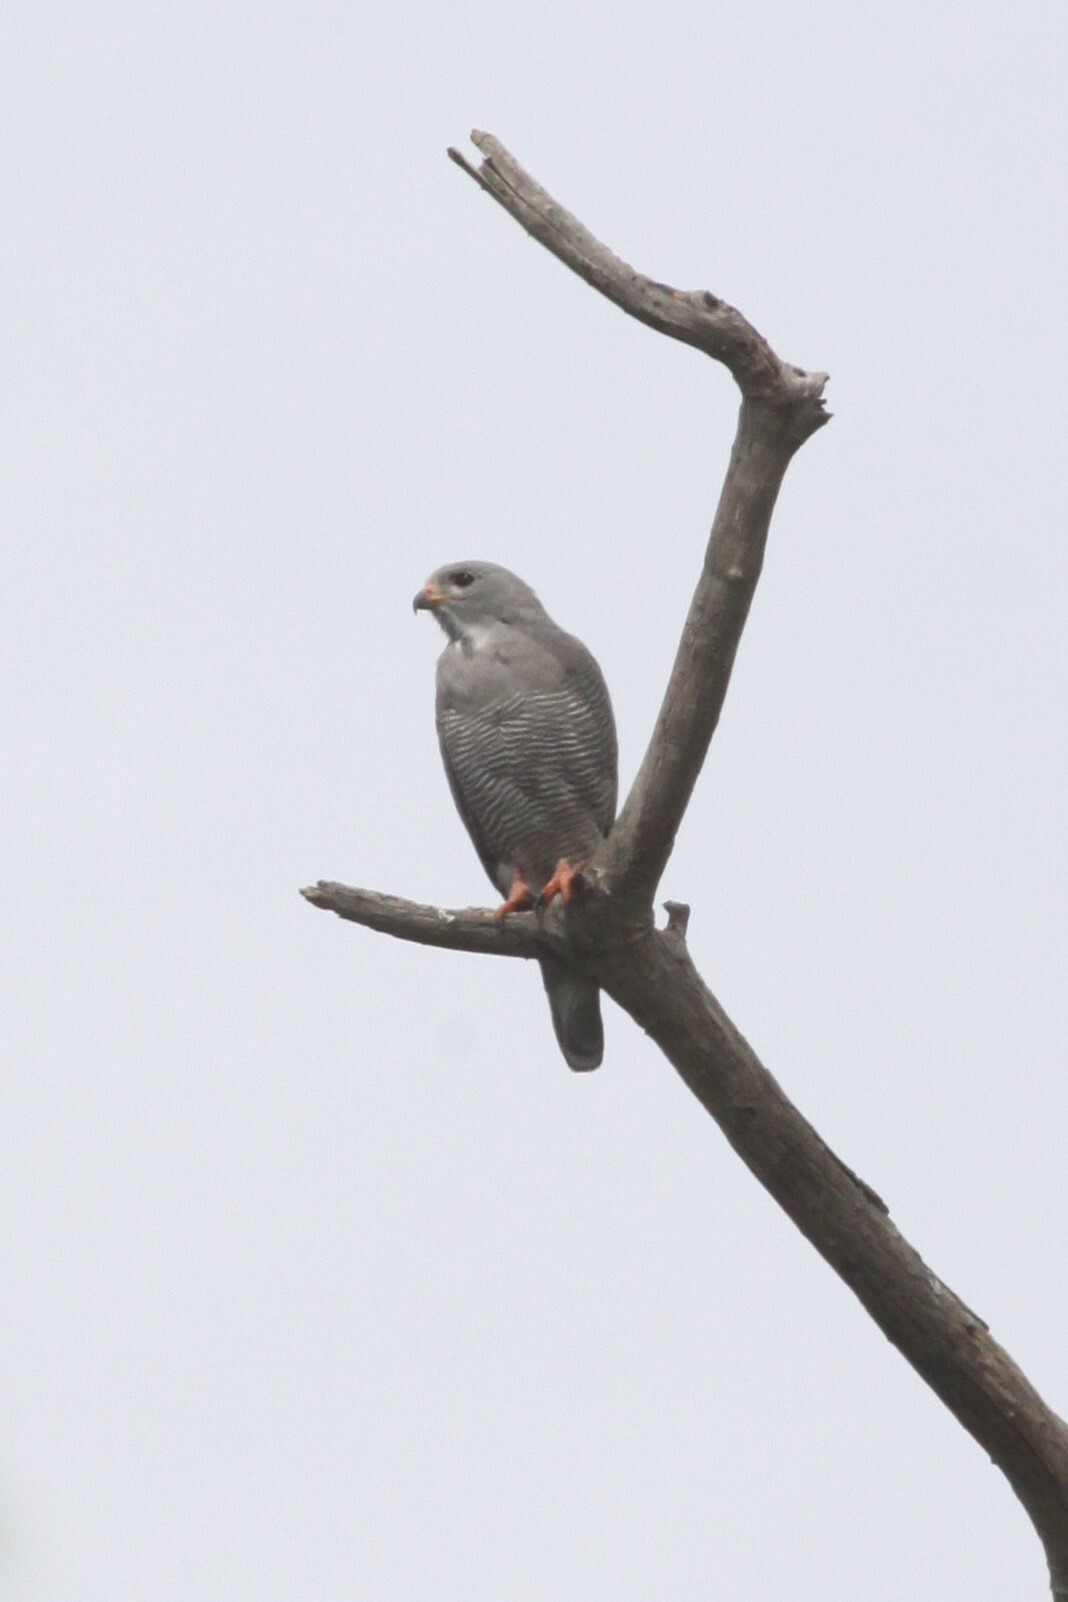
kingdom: Animalia
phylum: Chordata
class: Aves
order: Accipitriformes
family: Accipitridae
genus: Kaupifalco
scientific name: Kaupifalco monogrammicus
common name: Lizard buzzard
